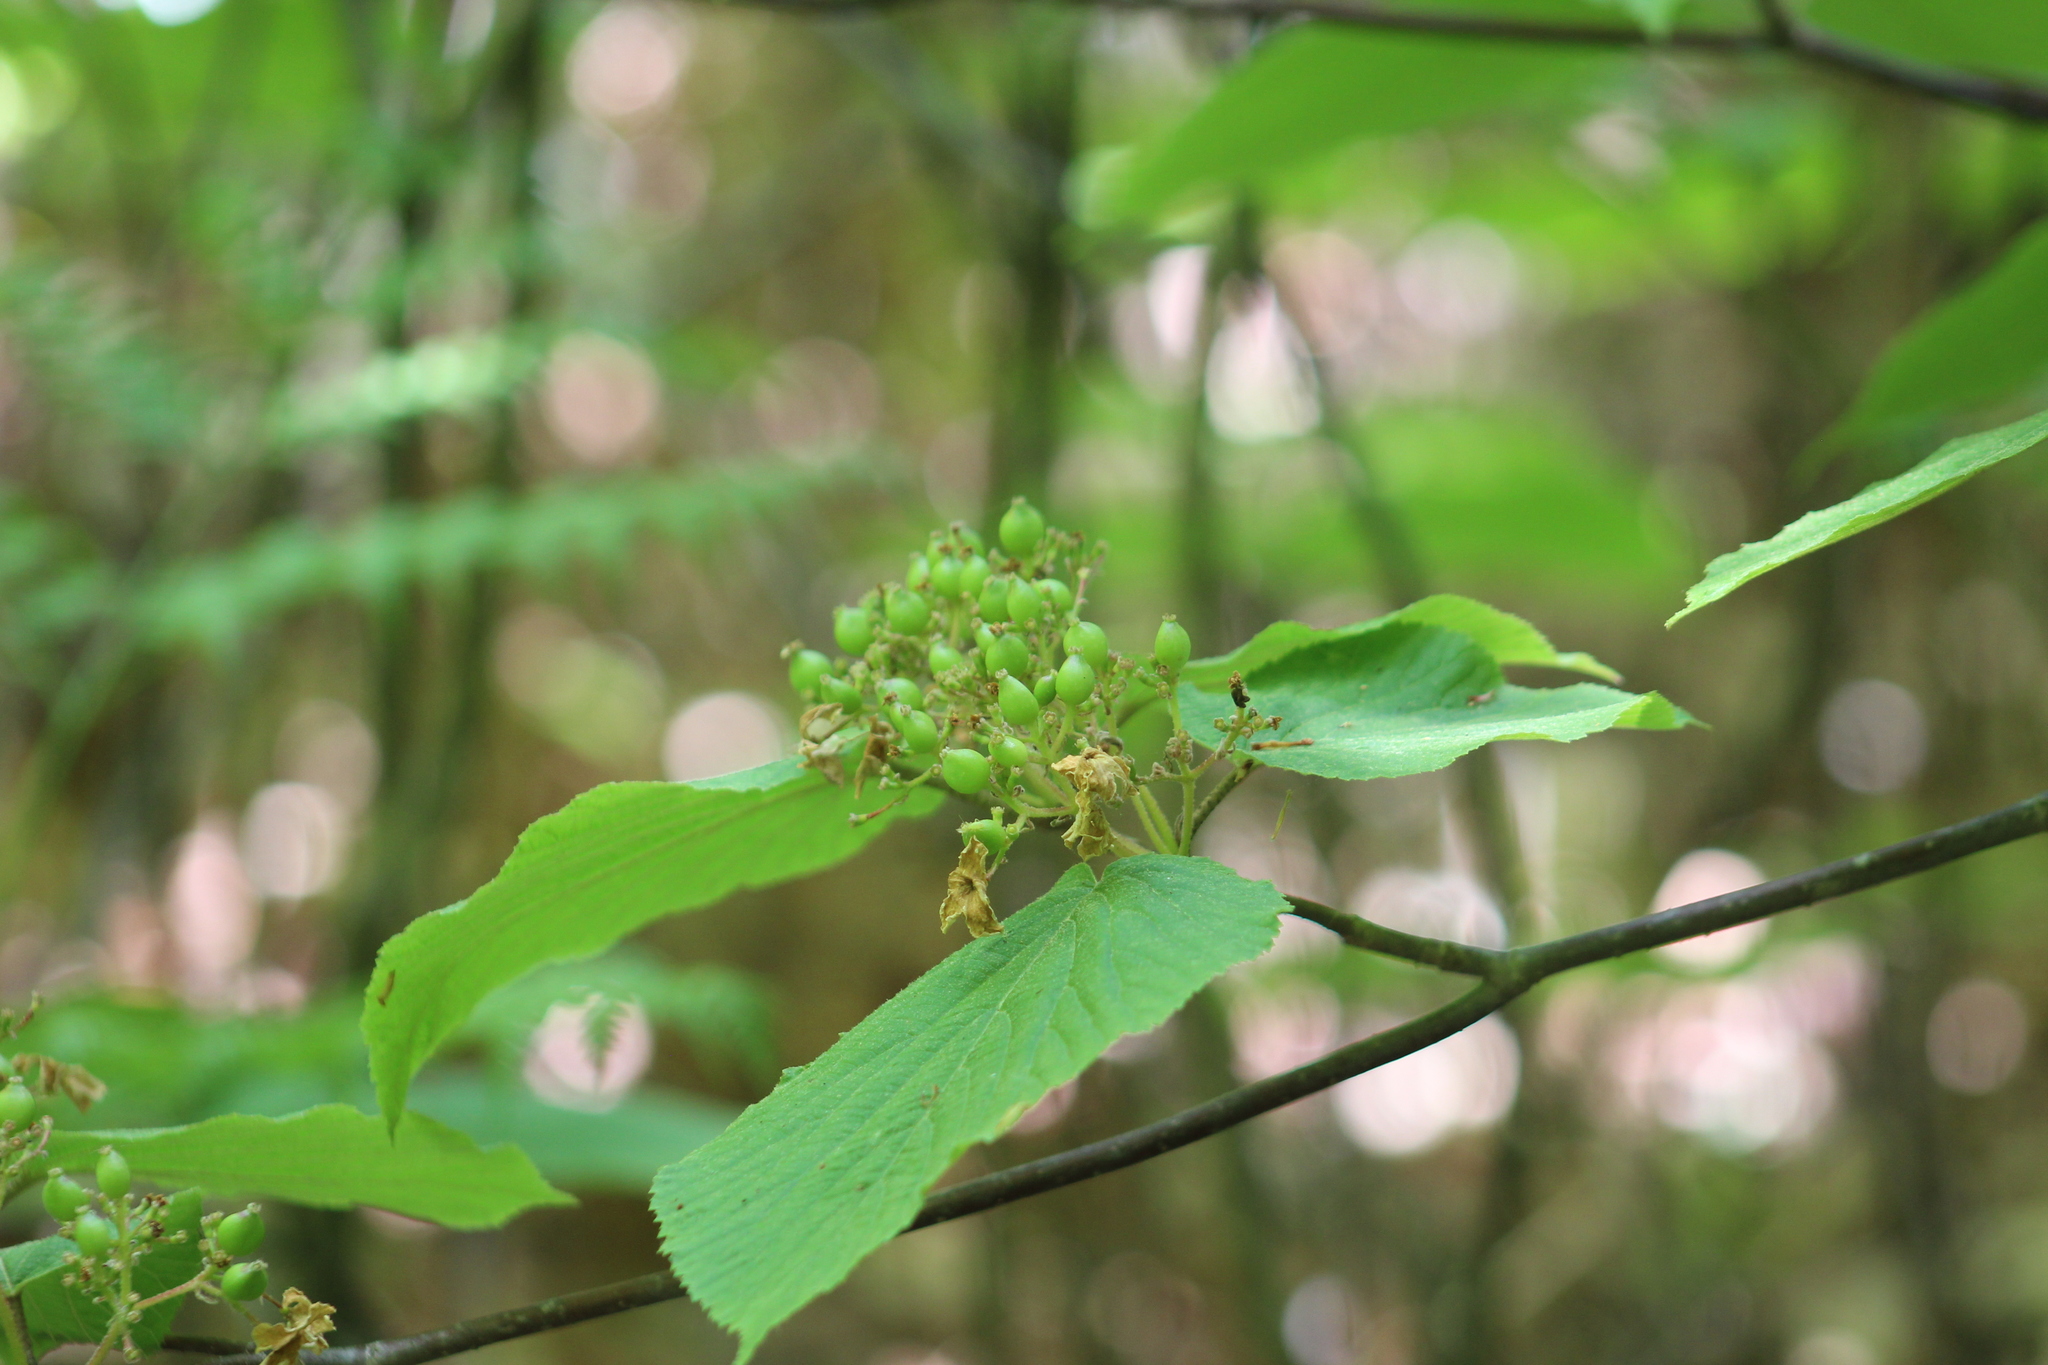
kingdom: Plantae
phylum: Tracheophyta
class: Magnoliopsida
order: Dipsacales
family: Viburnaceae
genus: Viburnum
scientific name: Viburnum lantanoides
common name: Hobblebush
